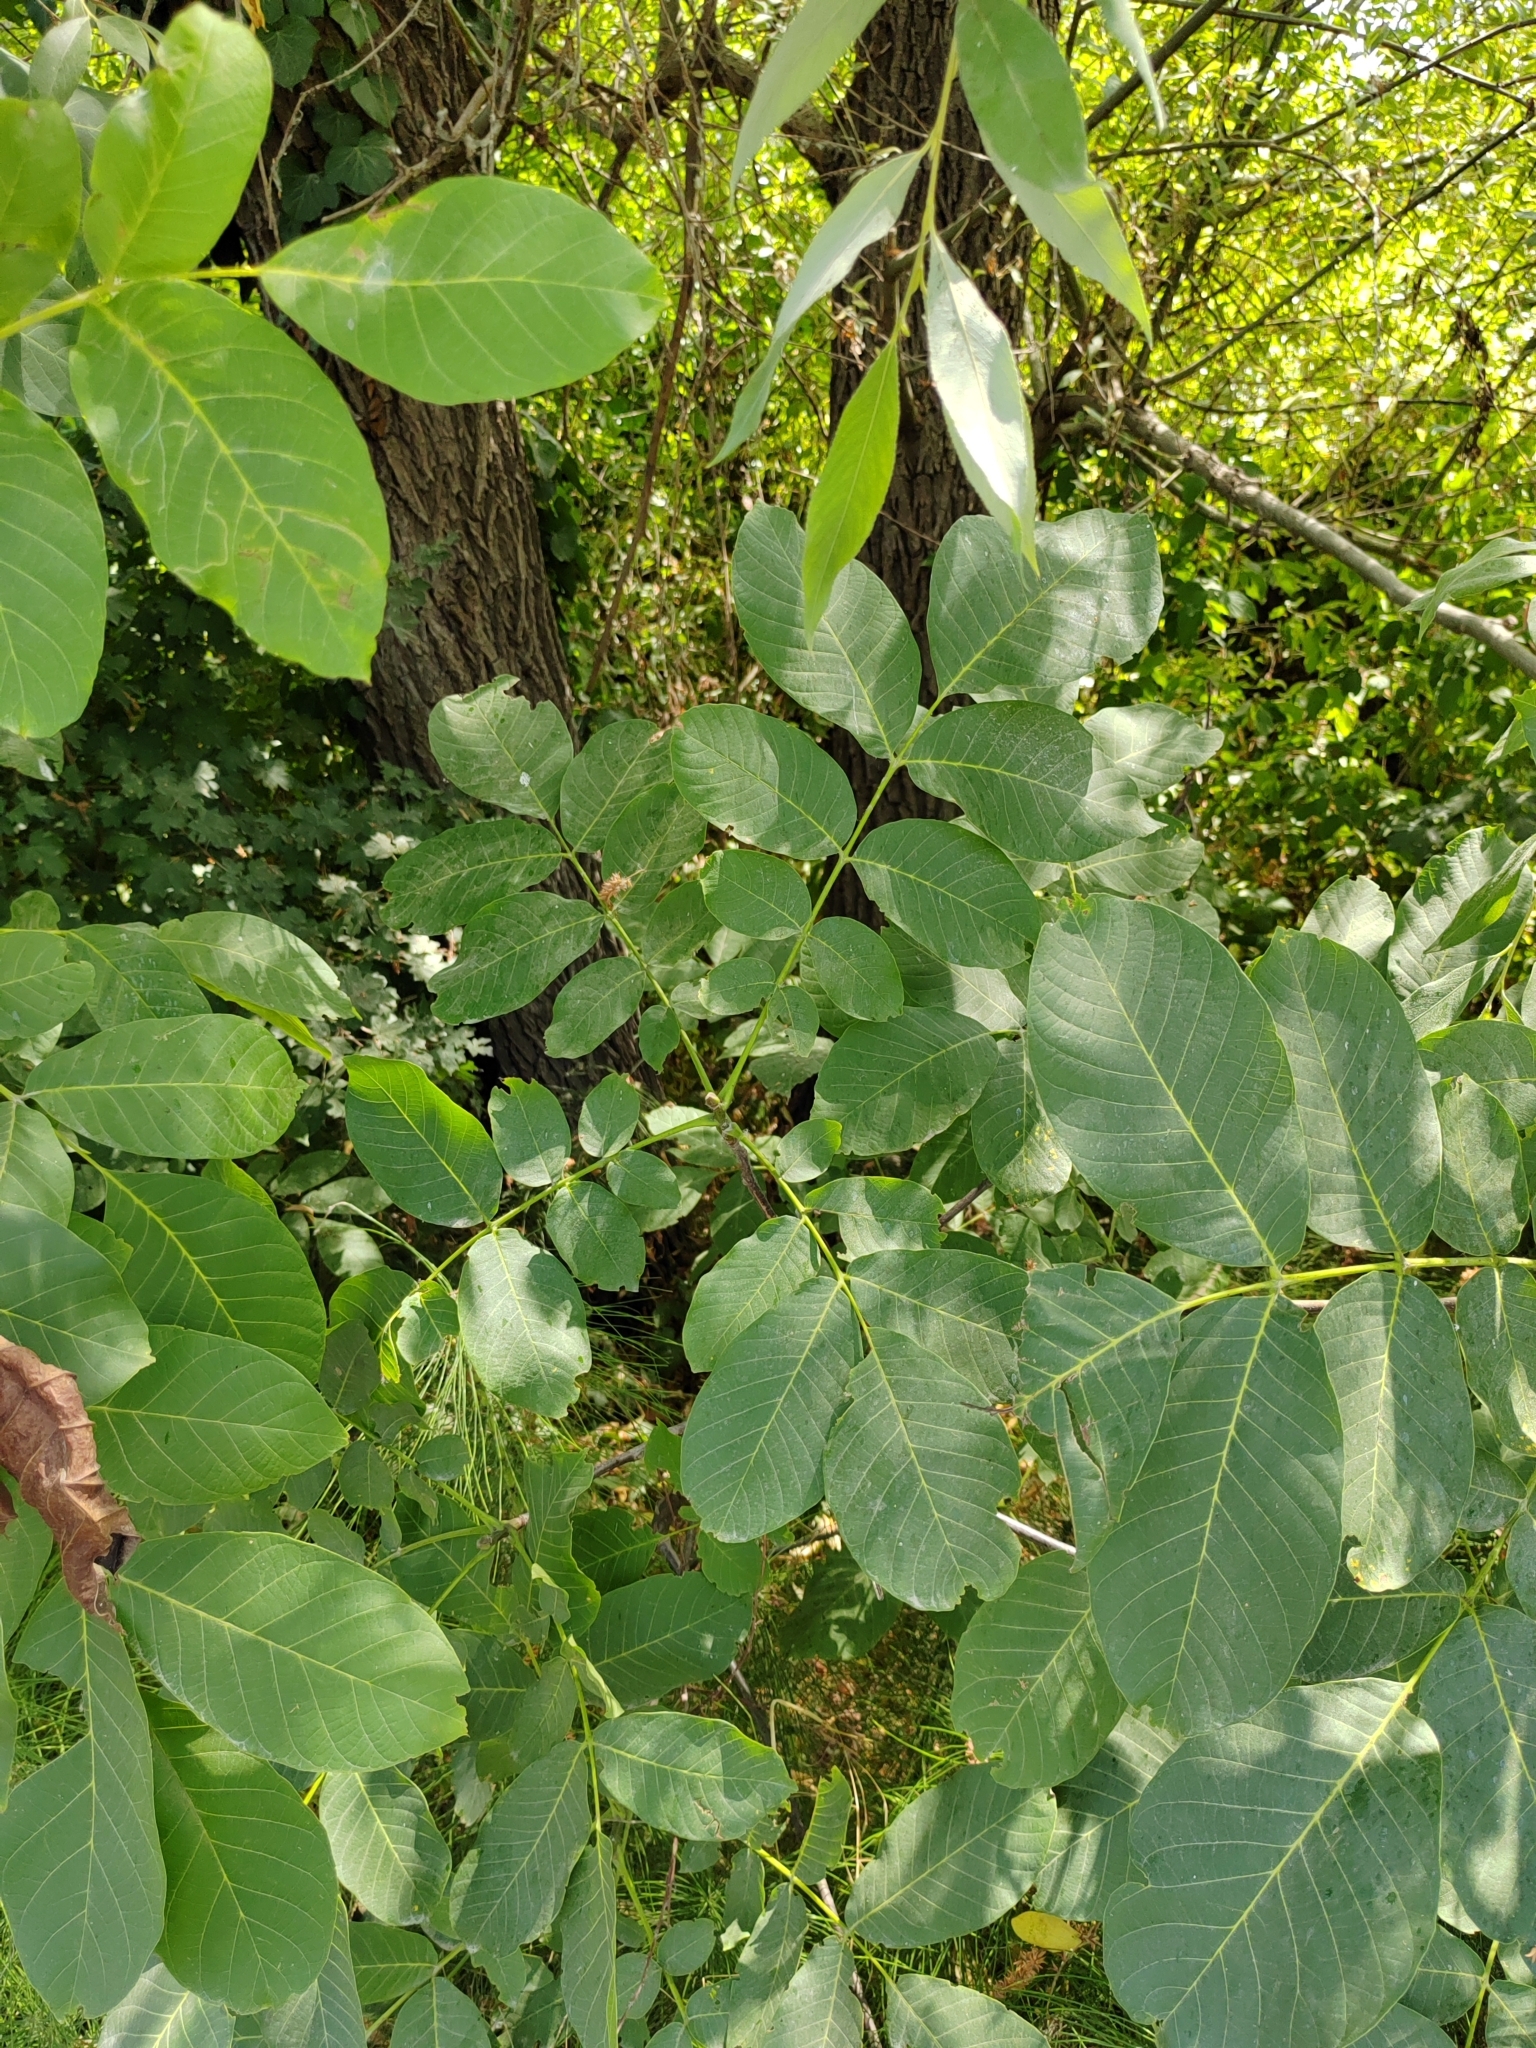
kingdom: Plantae
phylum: Tracheophyta
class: Magnoliopsida
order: Fagales
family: Juglandaceae
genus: Juglans
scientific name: Juglans regia
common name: Walnut
